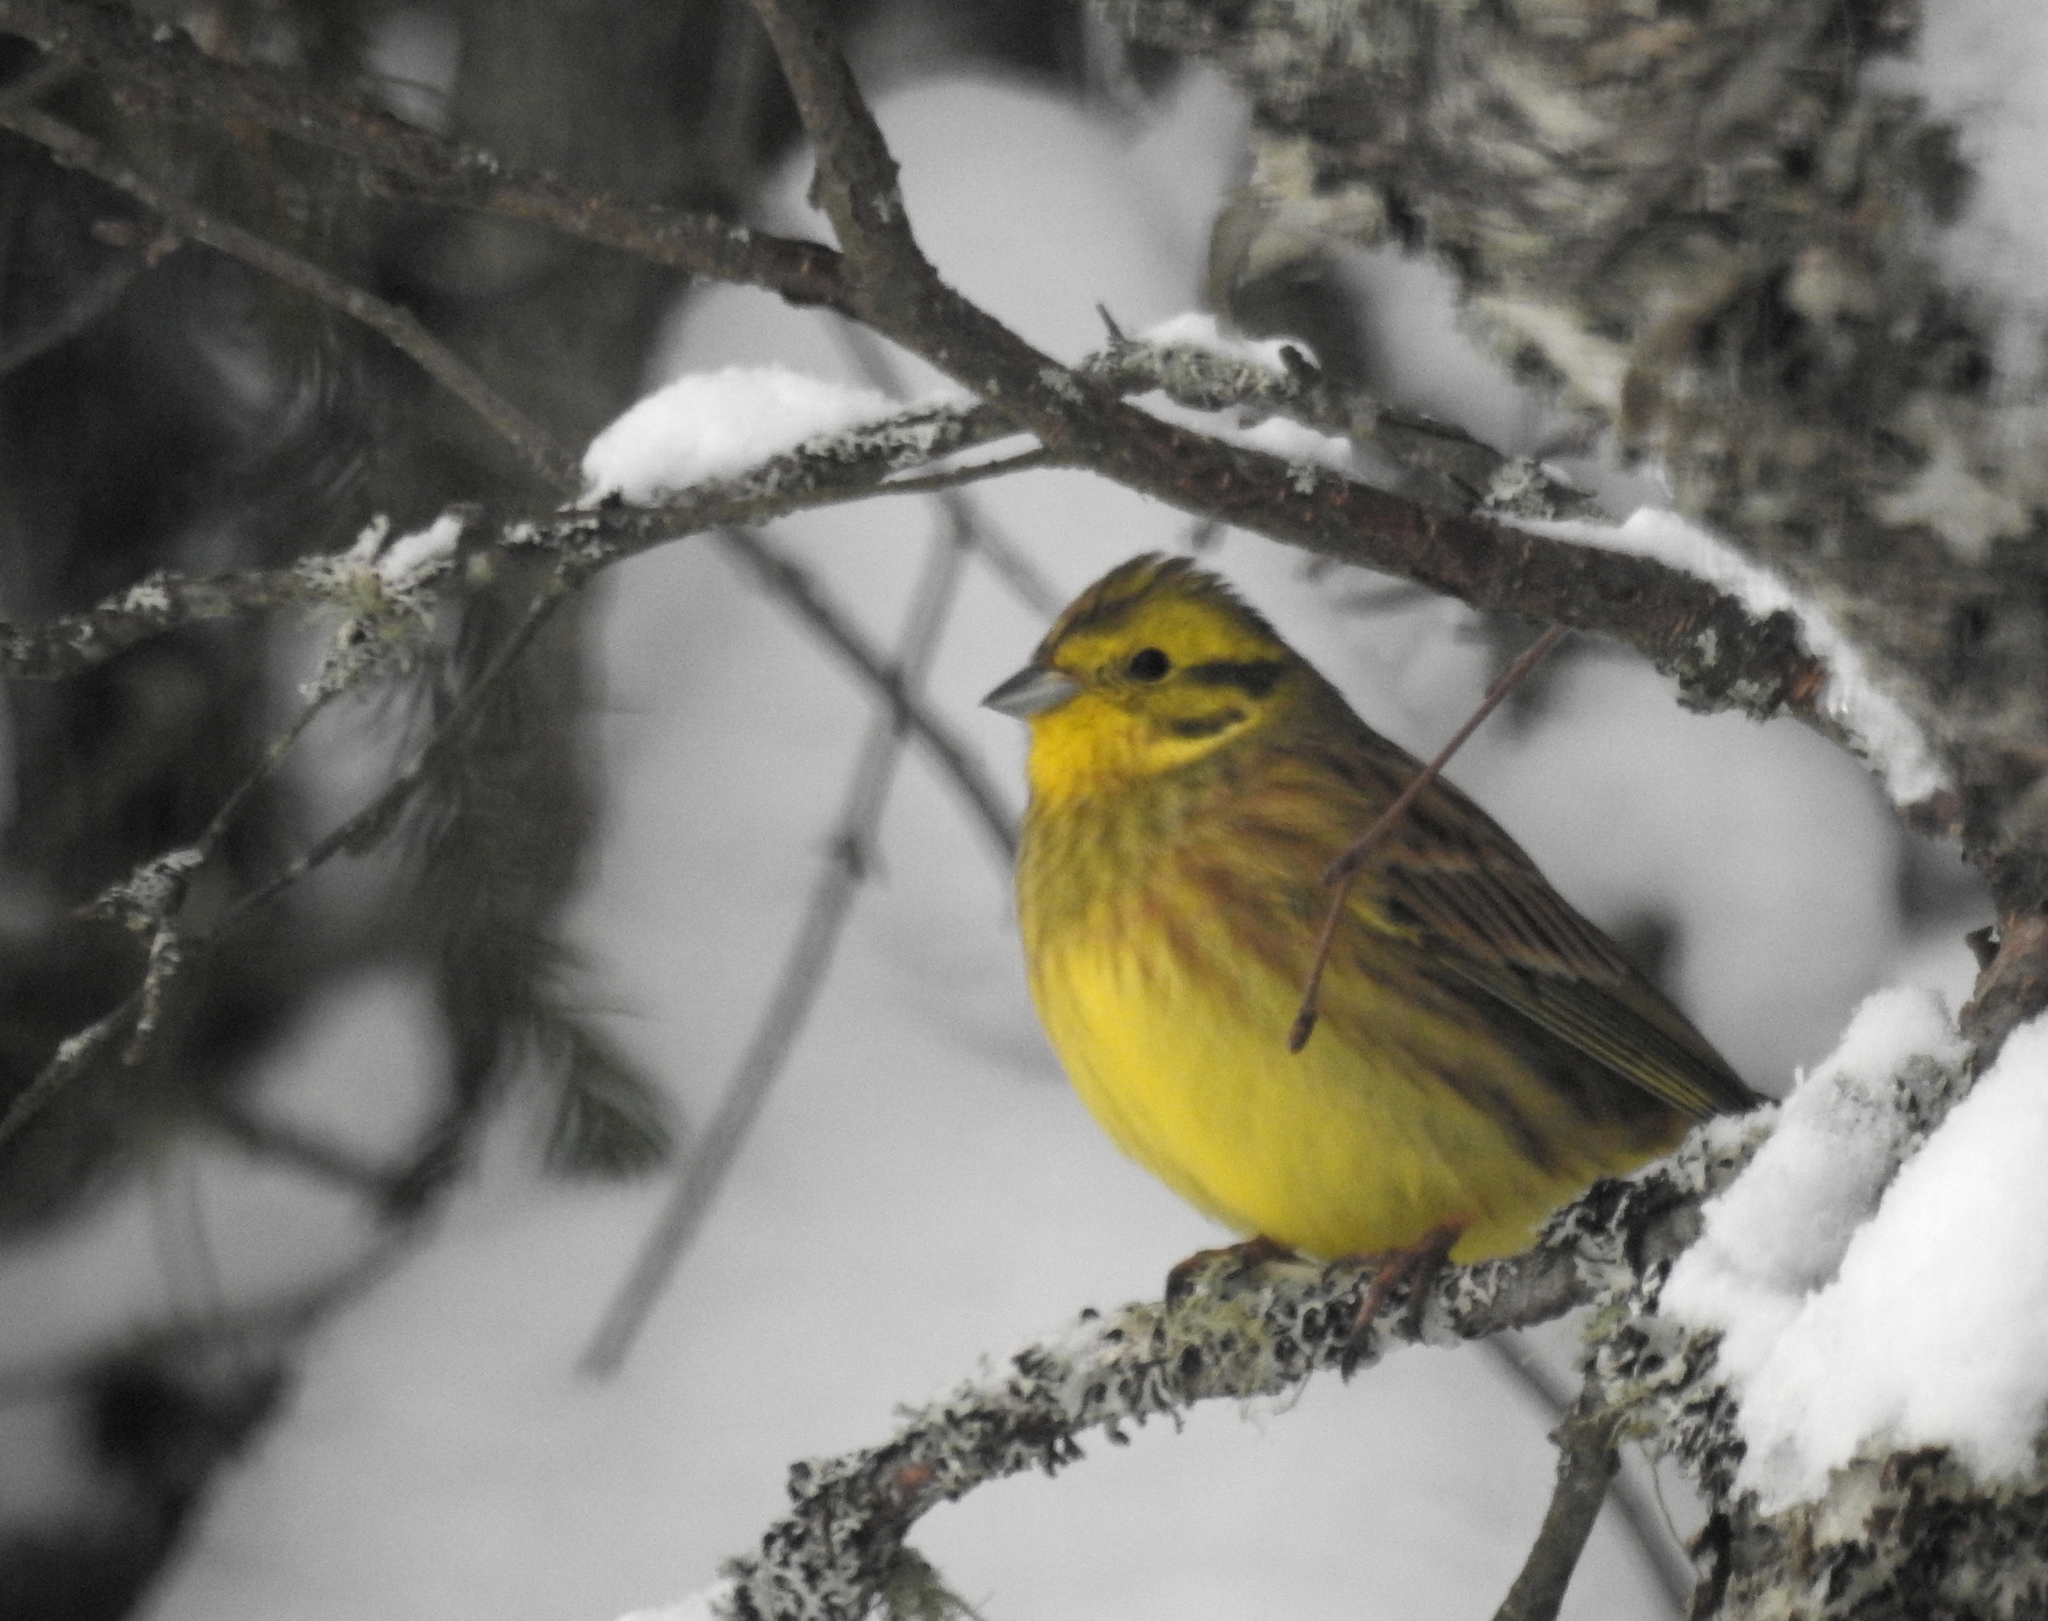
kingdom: Animalia
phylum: Chordata
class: Aves
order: Passeriformes
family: Emberizidae
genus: Emberiza
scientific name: Emberiza citrinella
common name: Yellowhammer
